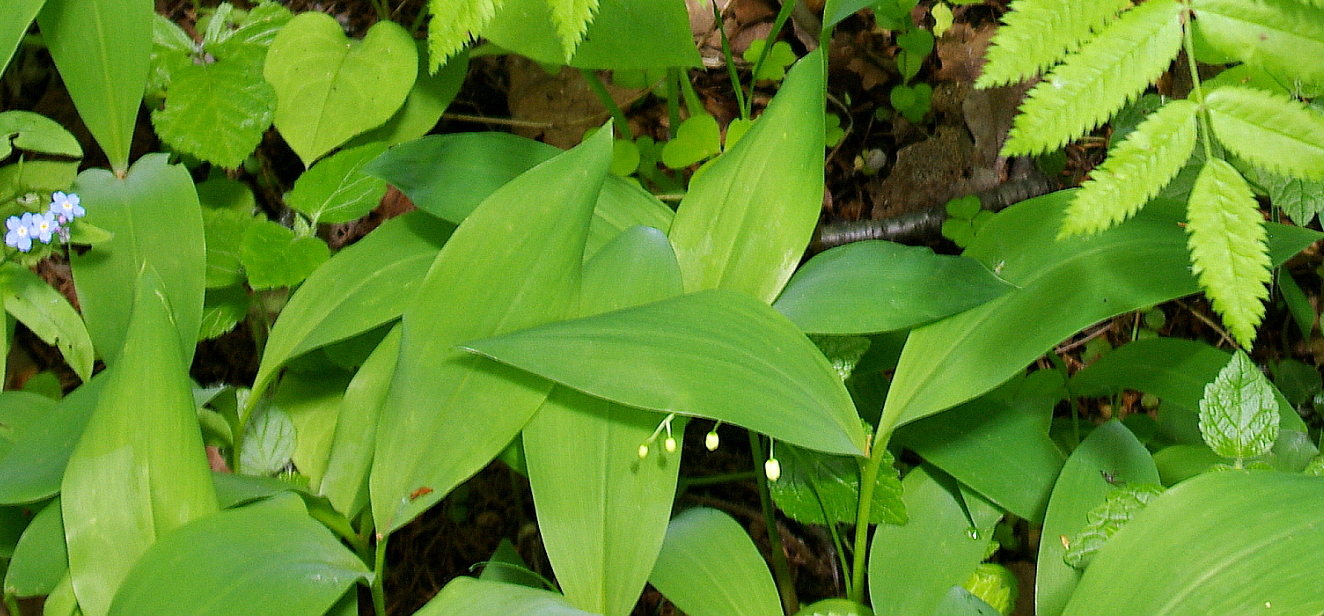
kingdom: Plantae
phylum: Tracheophyta
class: Liliopsida
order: Asparagales
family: Asparagaceae
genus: Convallaria
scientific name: Convallaria majalis
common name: Lily-of-the-valley
